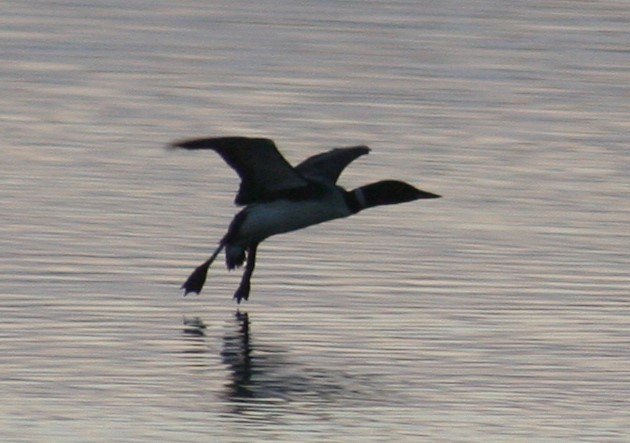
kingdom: Animalia
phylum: Chordata
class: Aves
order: Gaviiformes
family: Gaviidae
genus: Gavia
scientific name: Gavia immer
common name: Common loon
